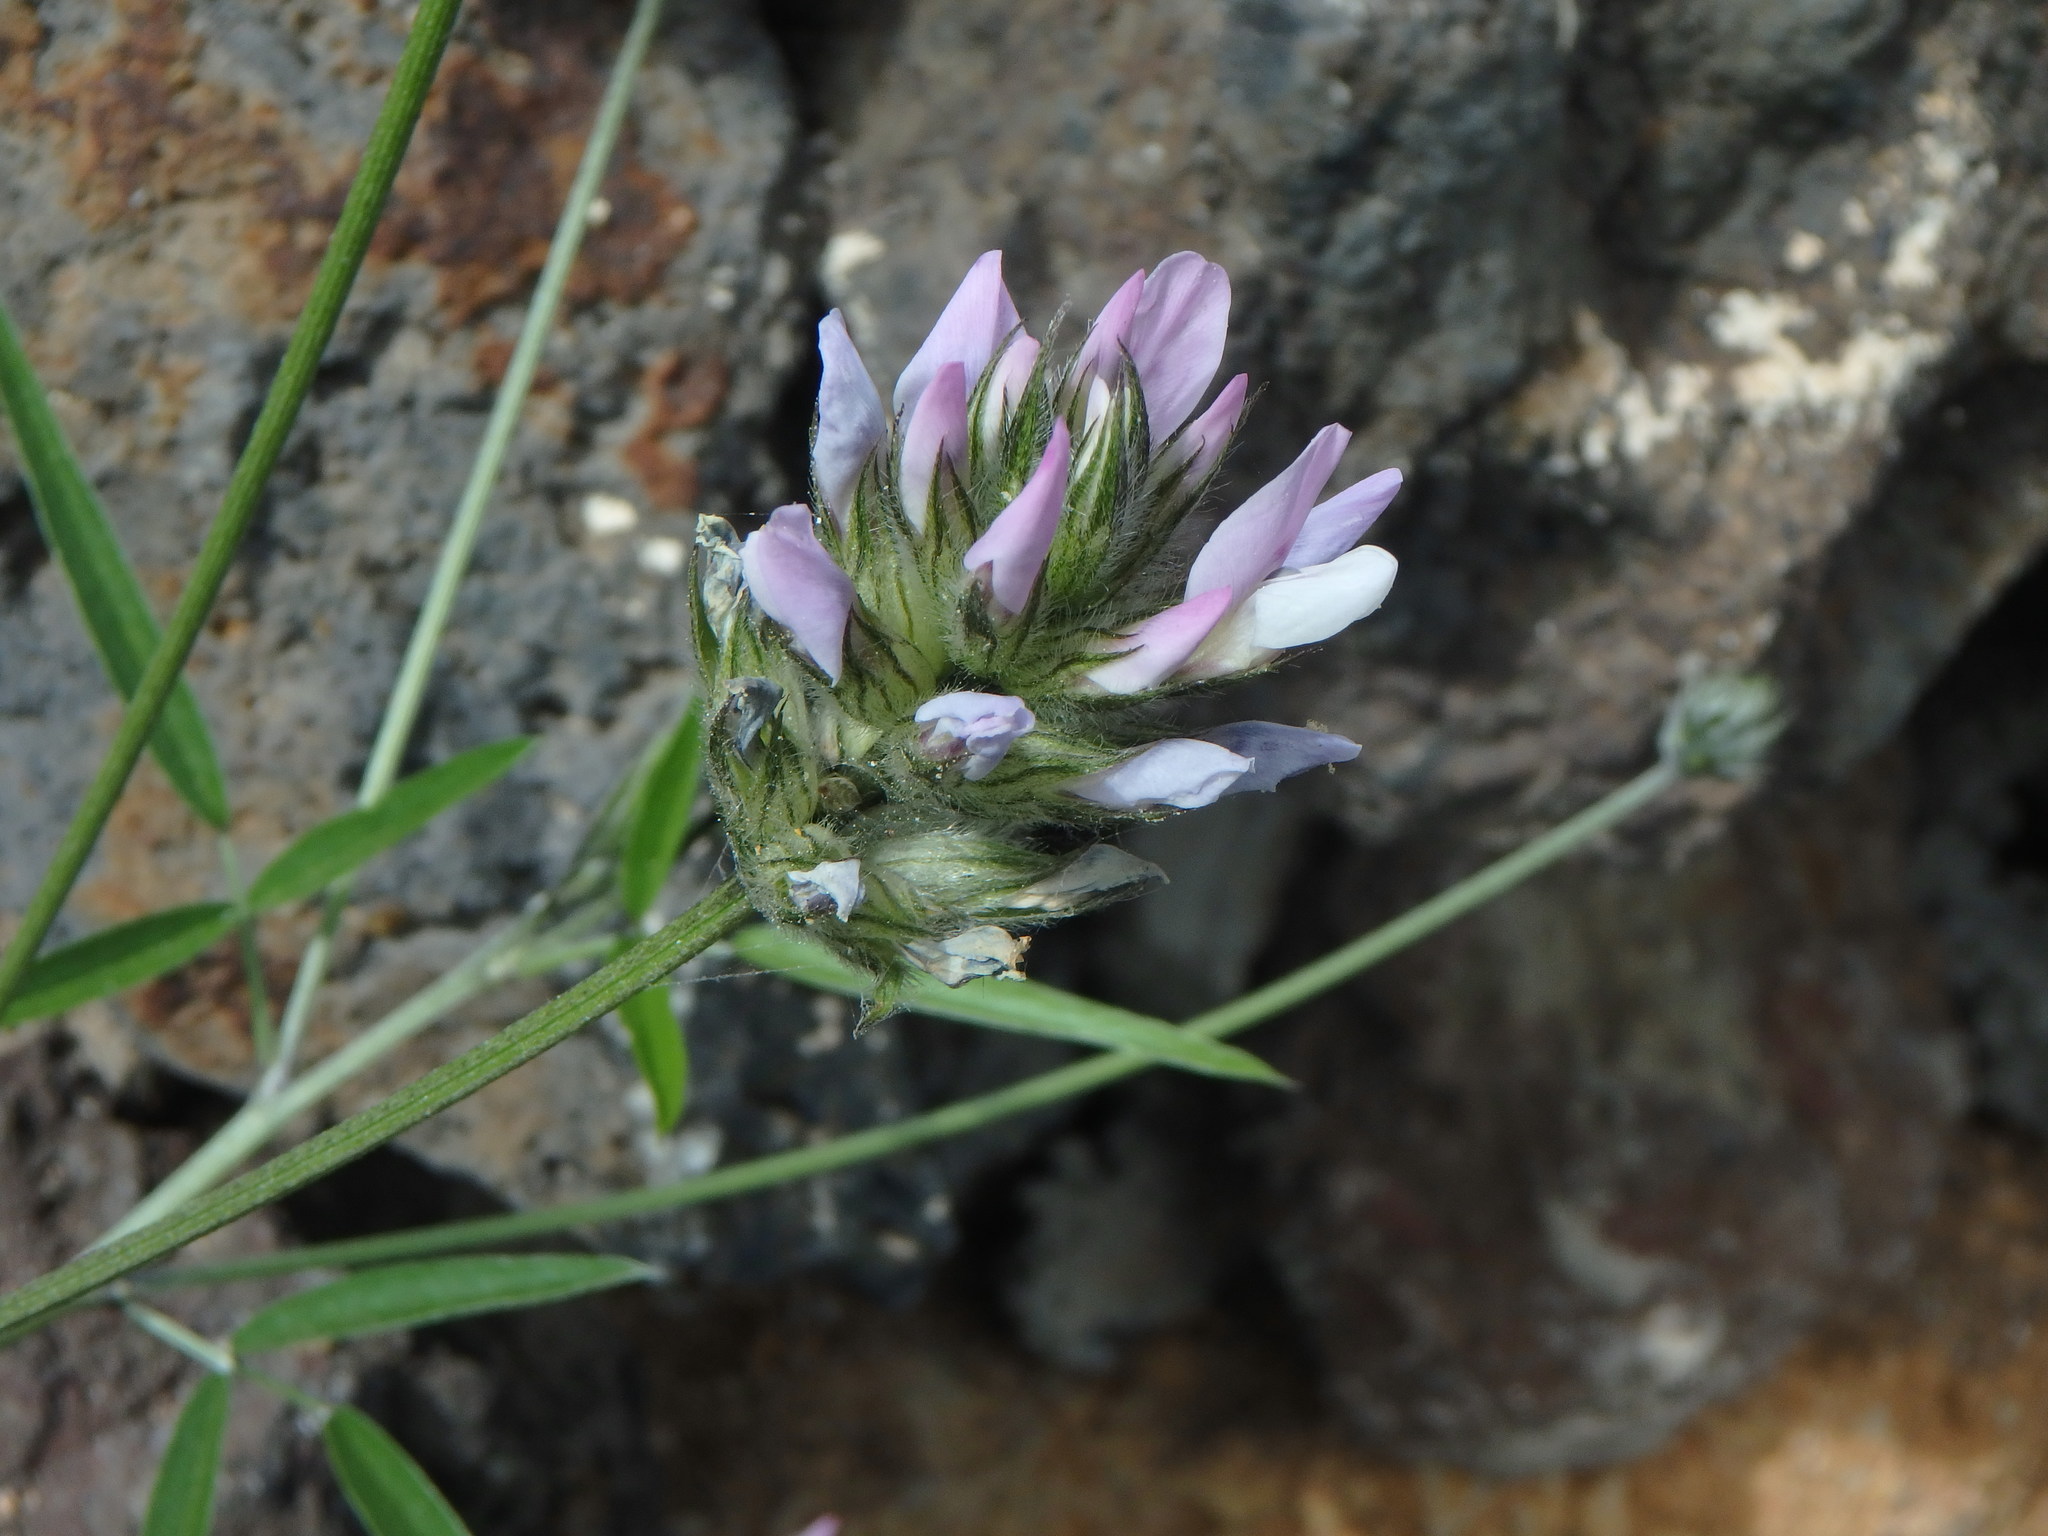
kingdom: Plantae
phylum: Tracheophyta
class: Magnoliopsida
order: Fabales
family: Fabaceae
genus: Bituminaria
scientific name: Bituminaria bituminosa
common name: Arabian pea
